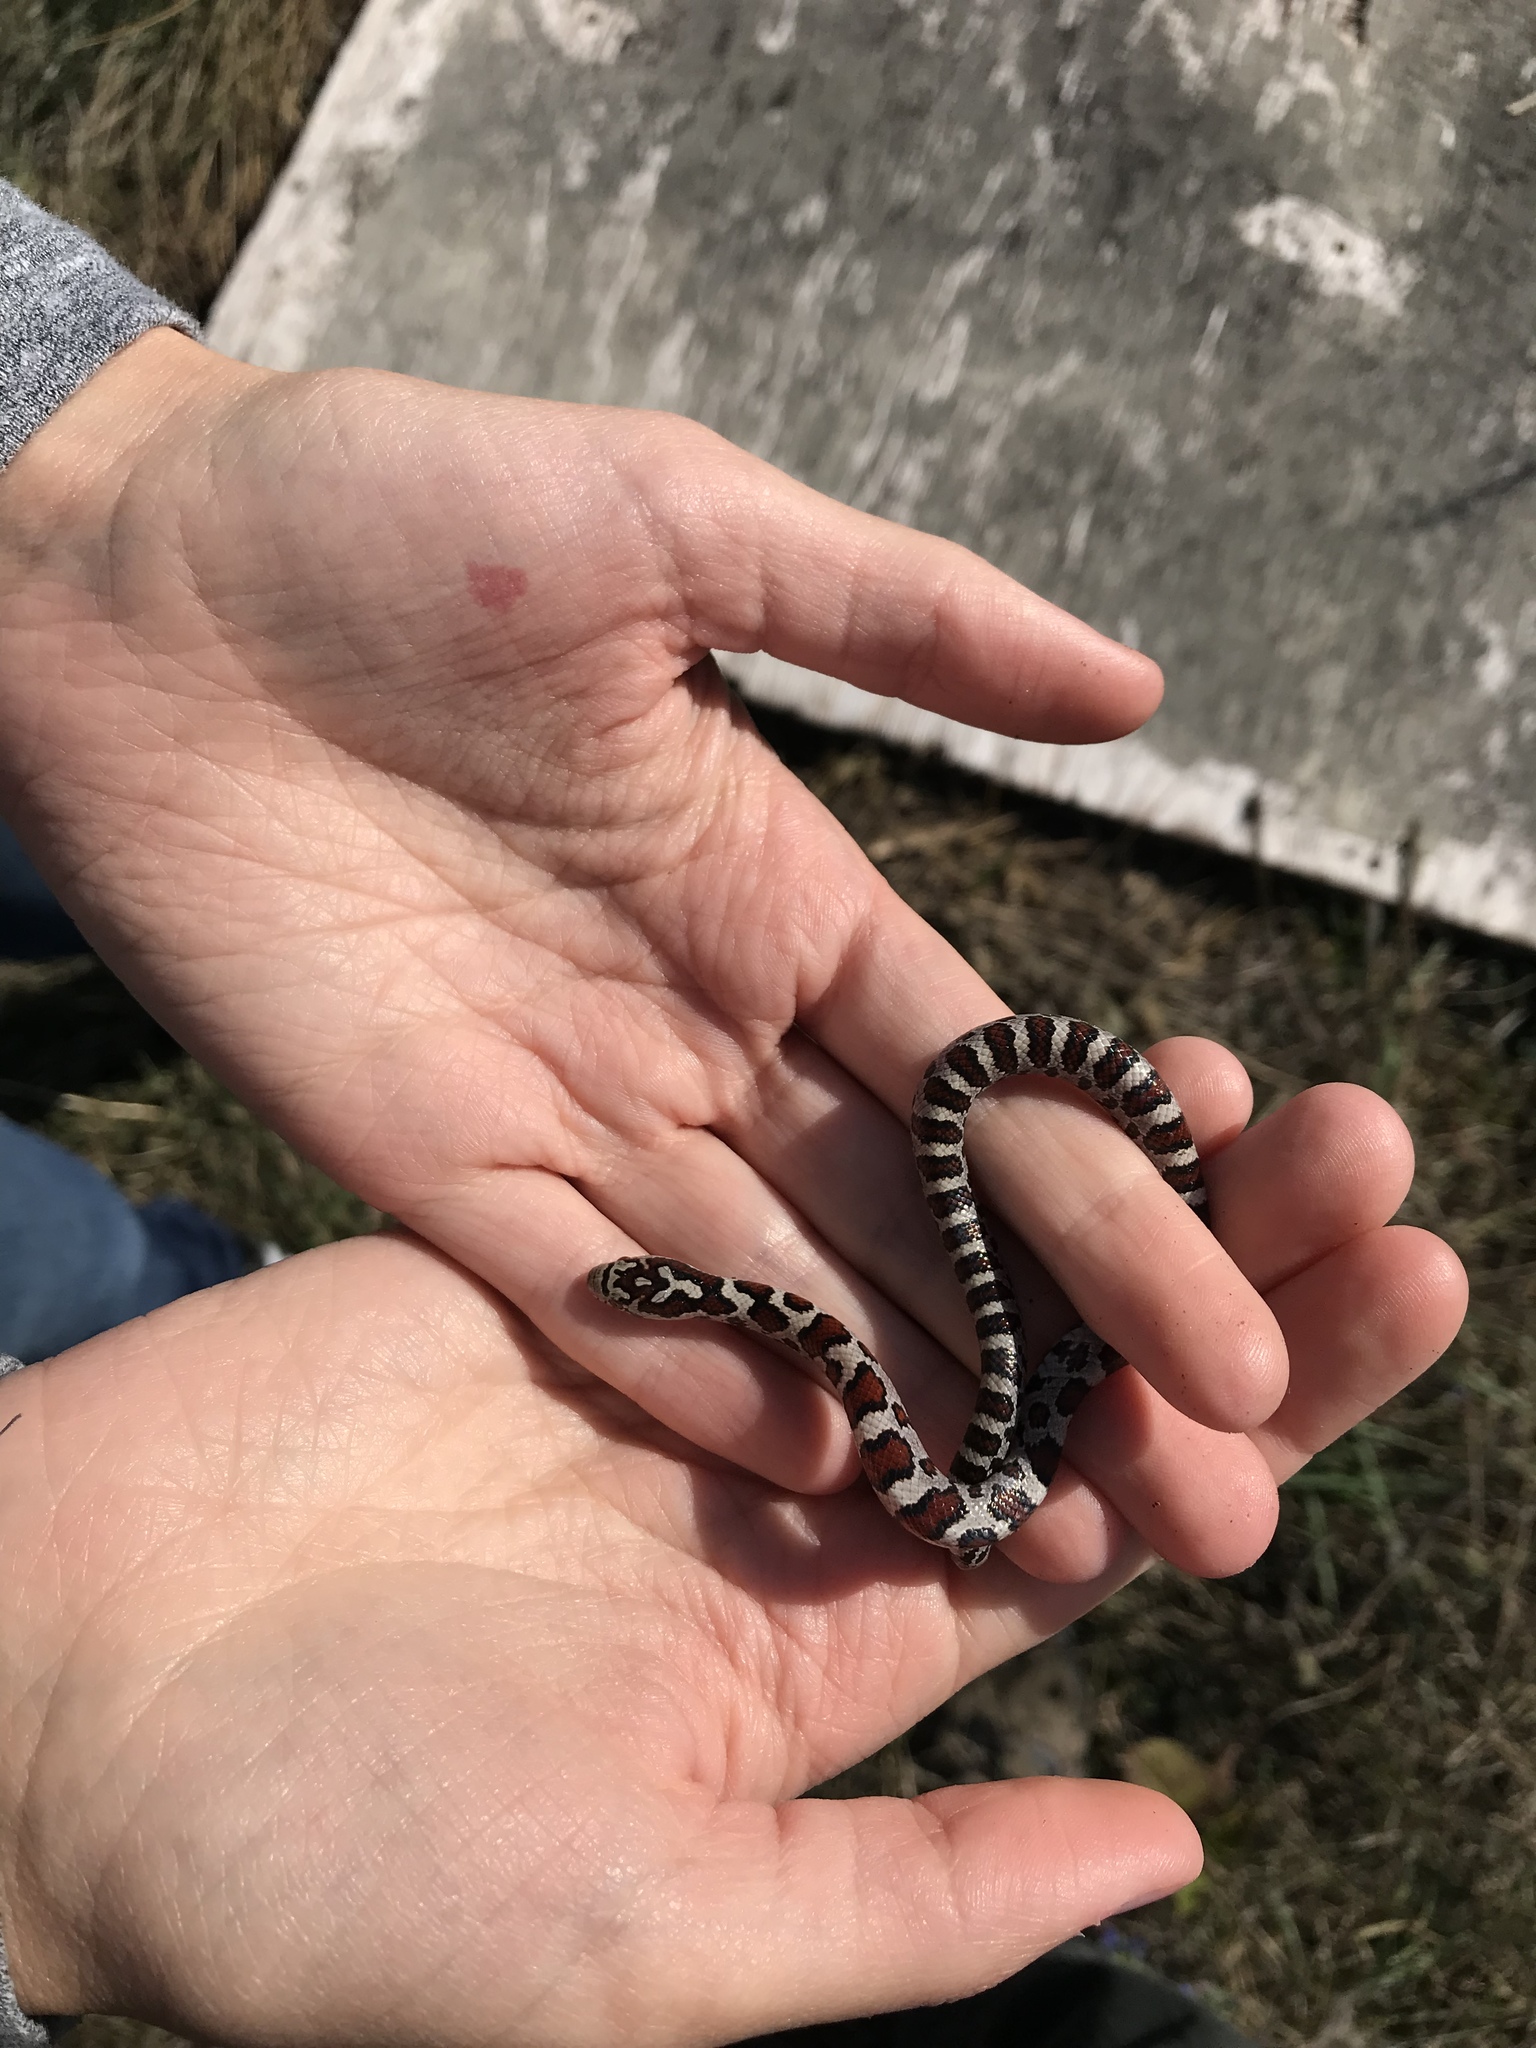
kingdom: Animalia
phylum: Chordata
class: Squamata
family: Colubridae
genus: Lampropeltis
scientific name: Lampropeltis triangulum
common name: Eastern milksnake
